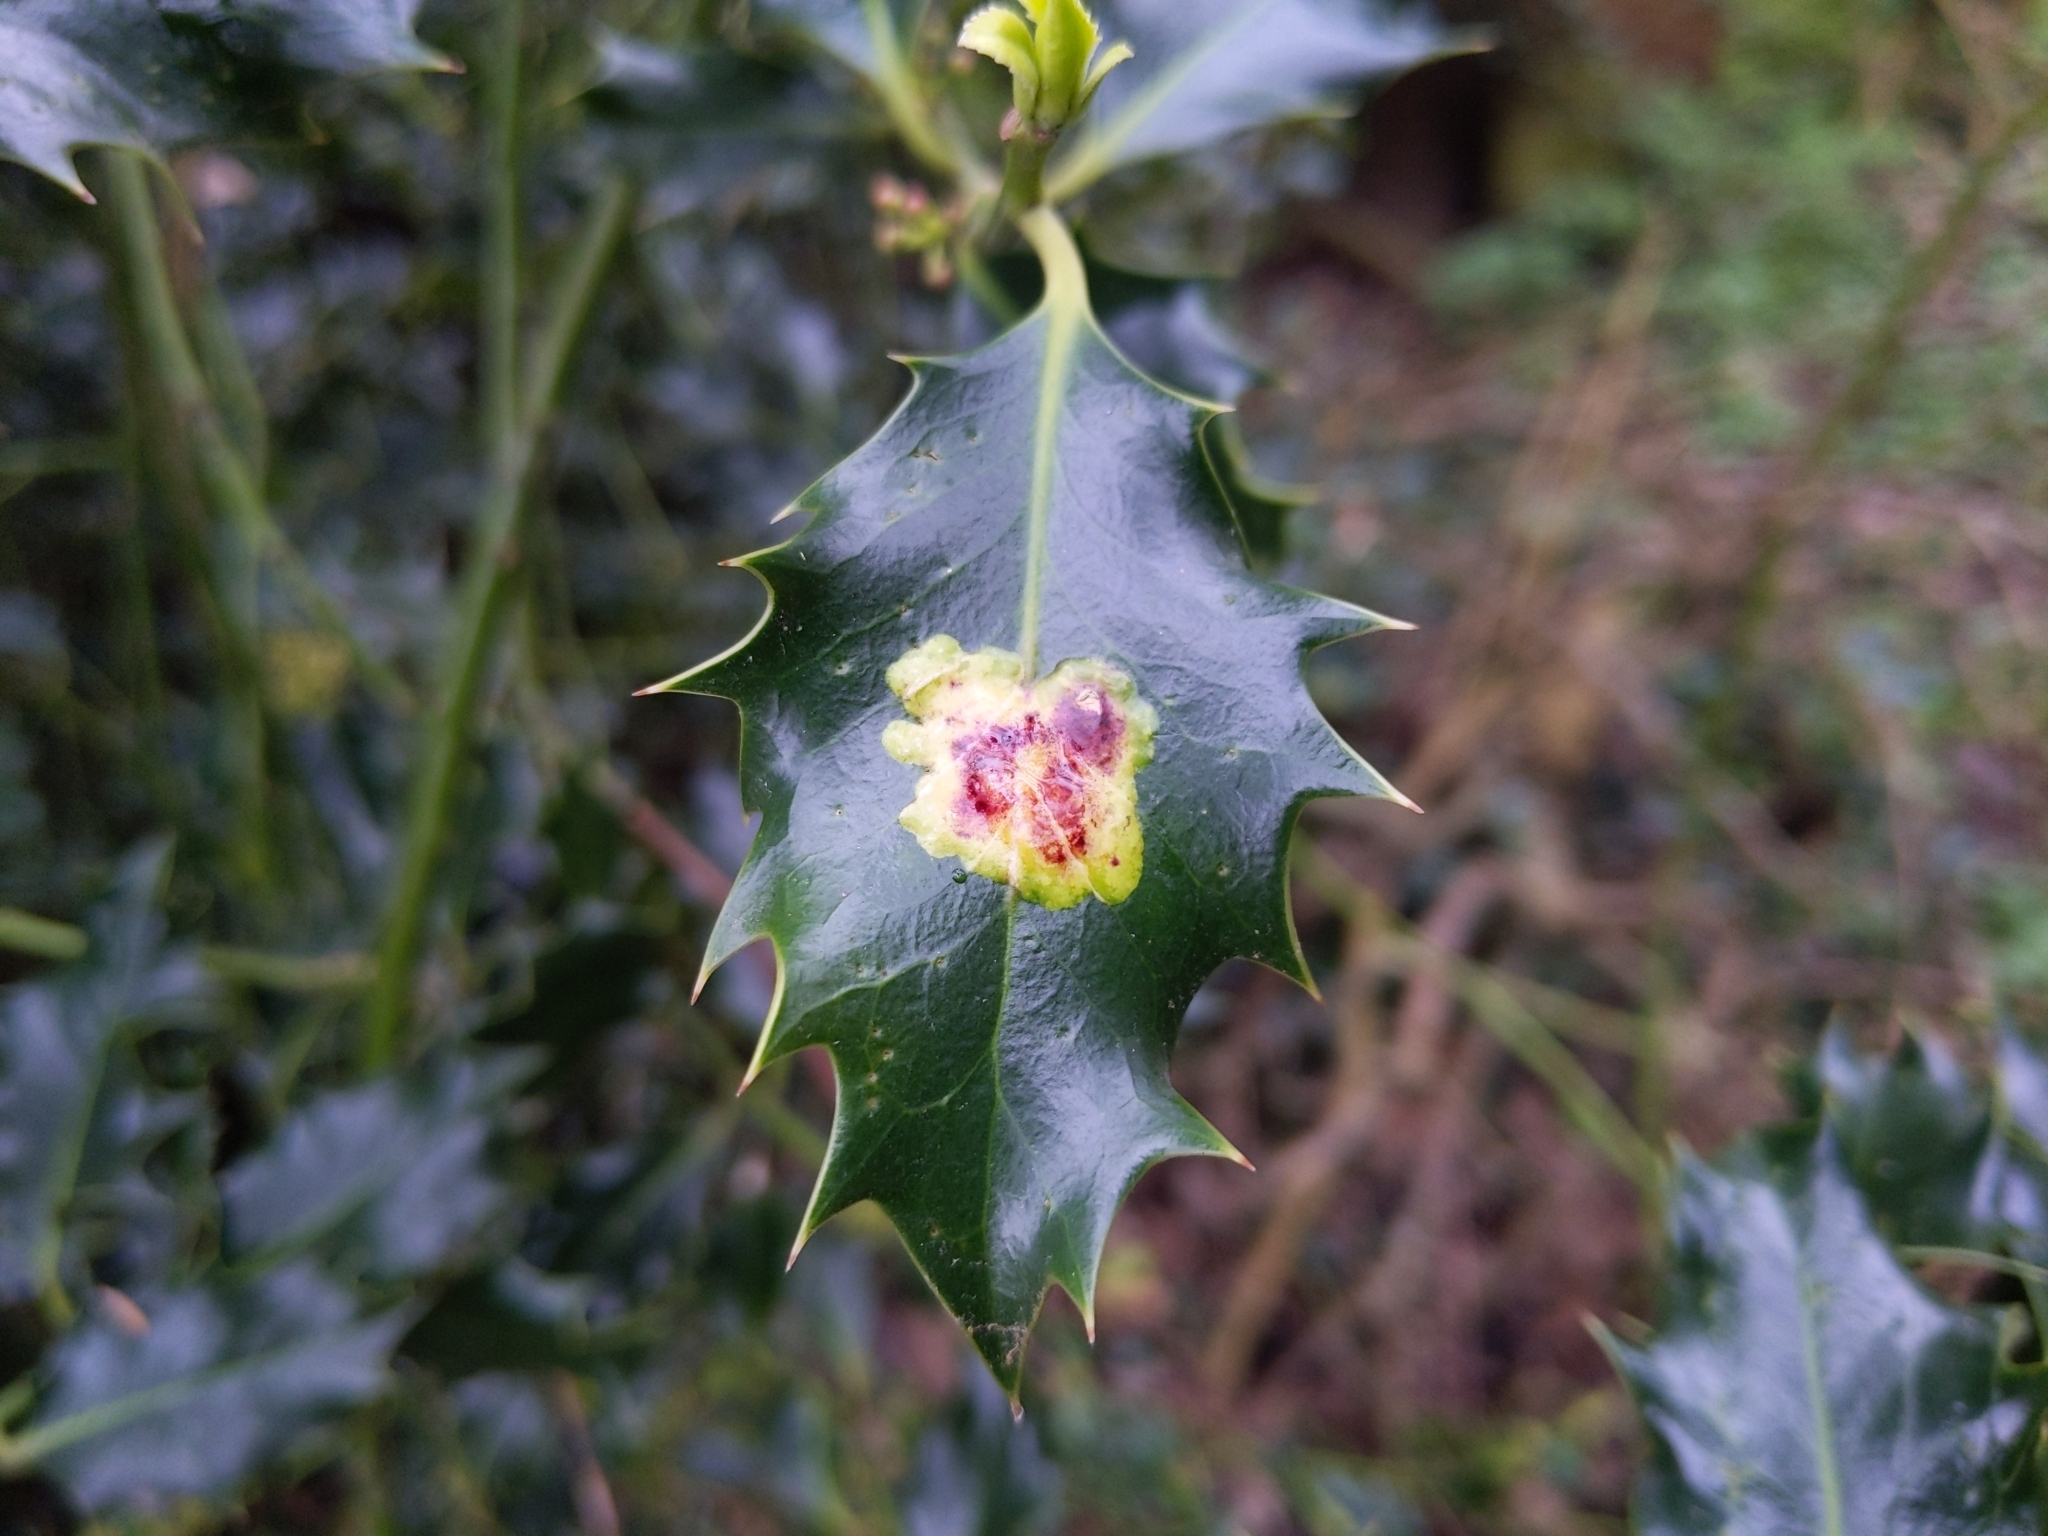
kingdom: Animalia
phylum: Arthropoda
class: Insecta
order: Diptera
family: Agromyzidae
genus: Phytomyza
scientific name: Phytomyza ilicis
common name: Holly leafminer
